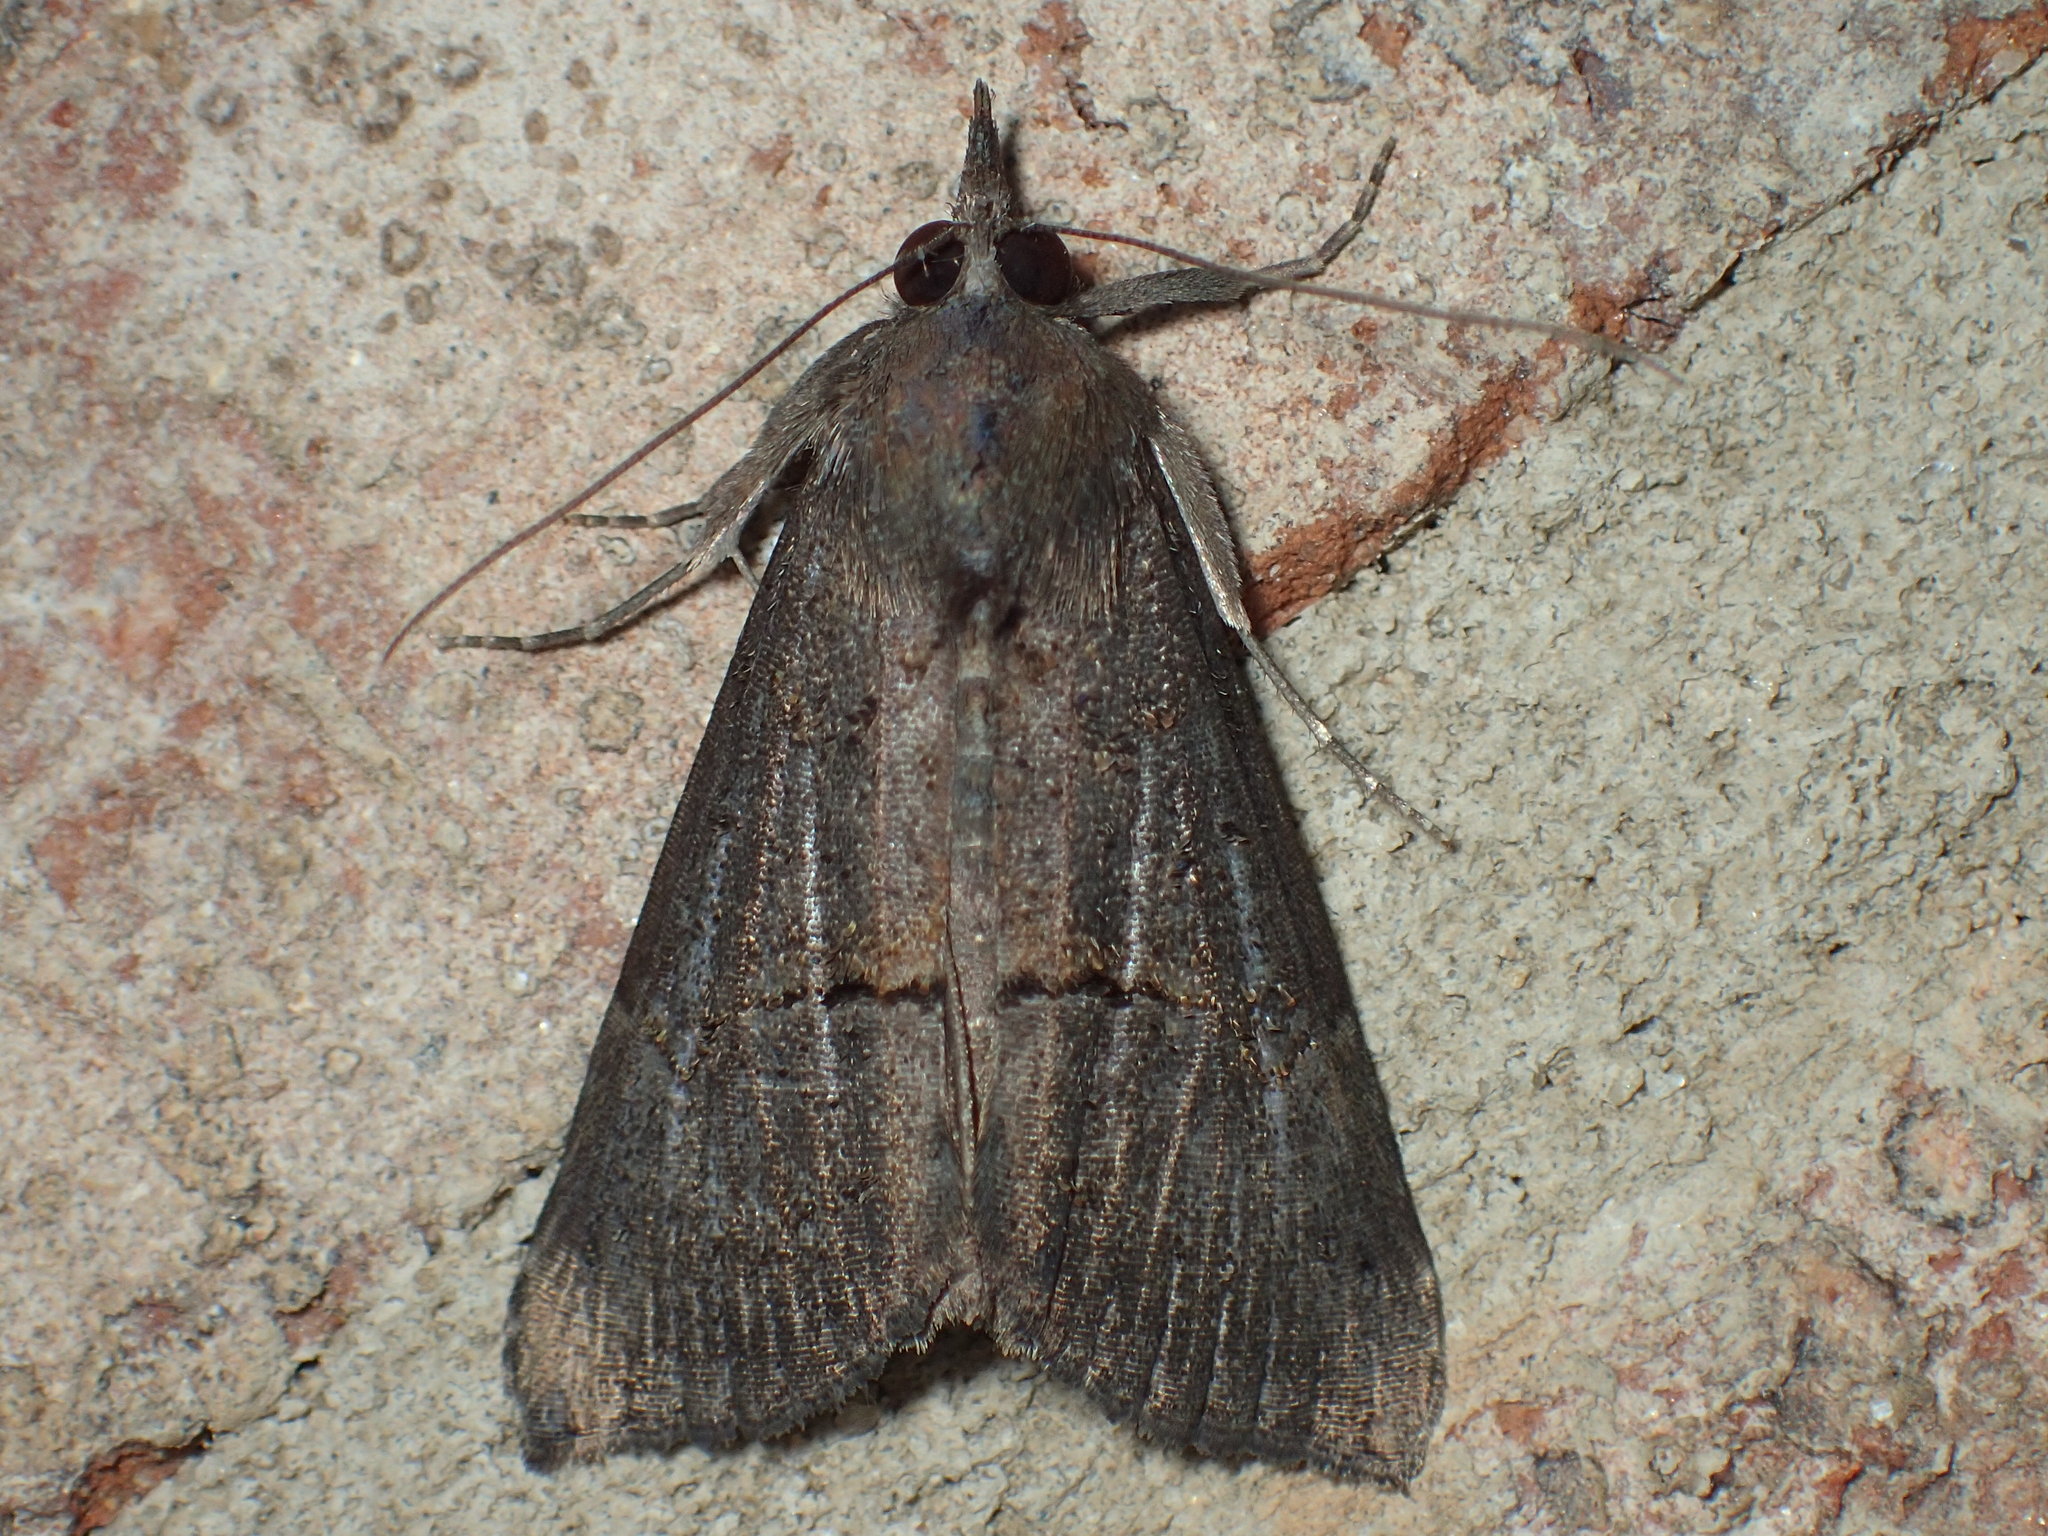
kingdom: Animalia
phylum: Arthropoda
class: Insecta
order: Lepidoptera
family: Erebidae
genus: Hypena
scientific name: Hypena scabra
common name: Green cloverworm
